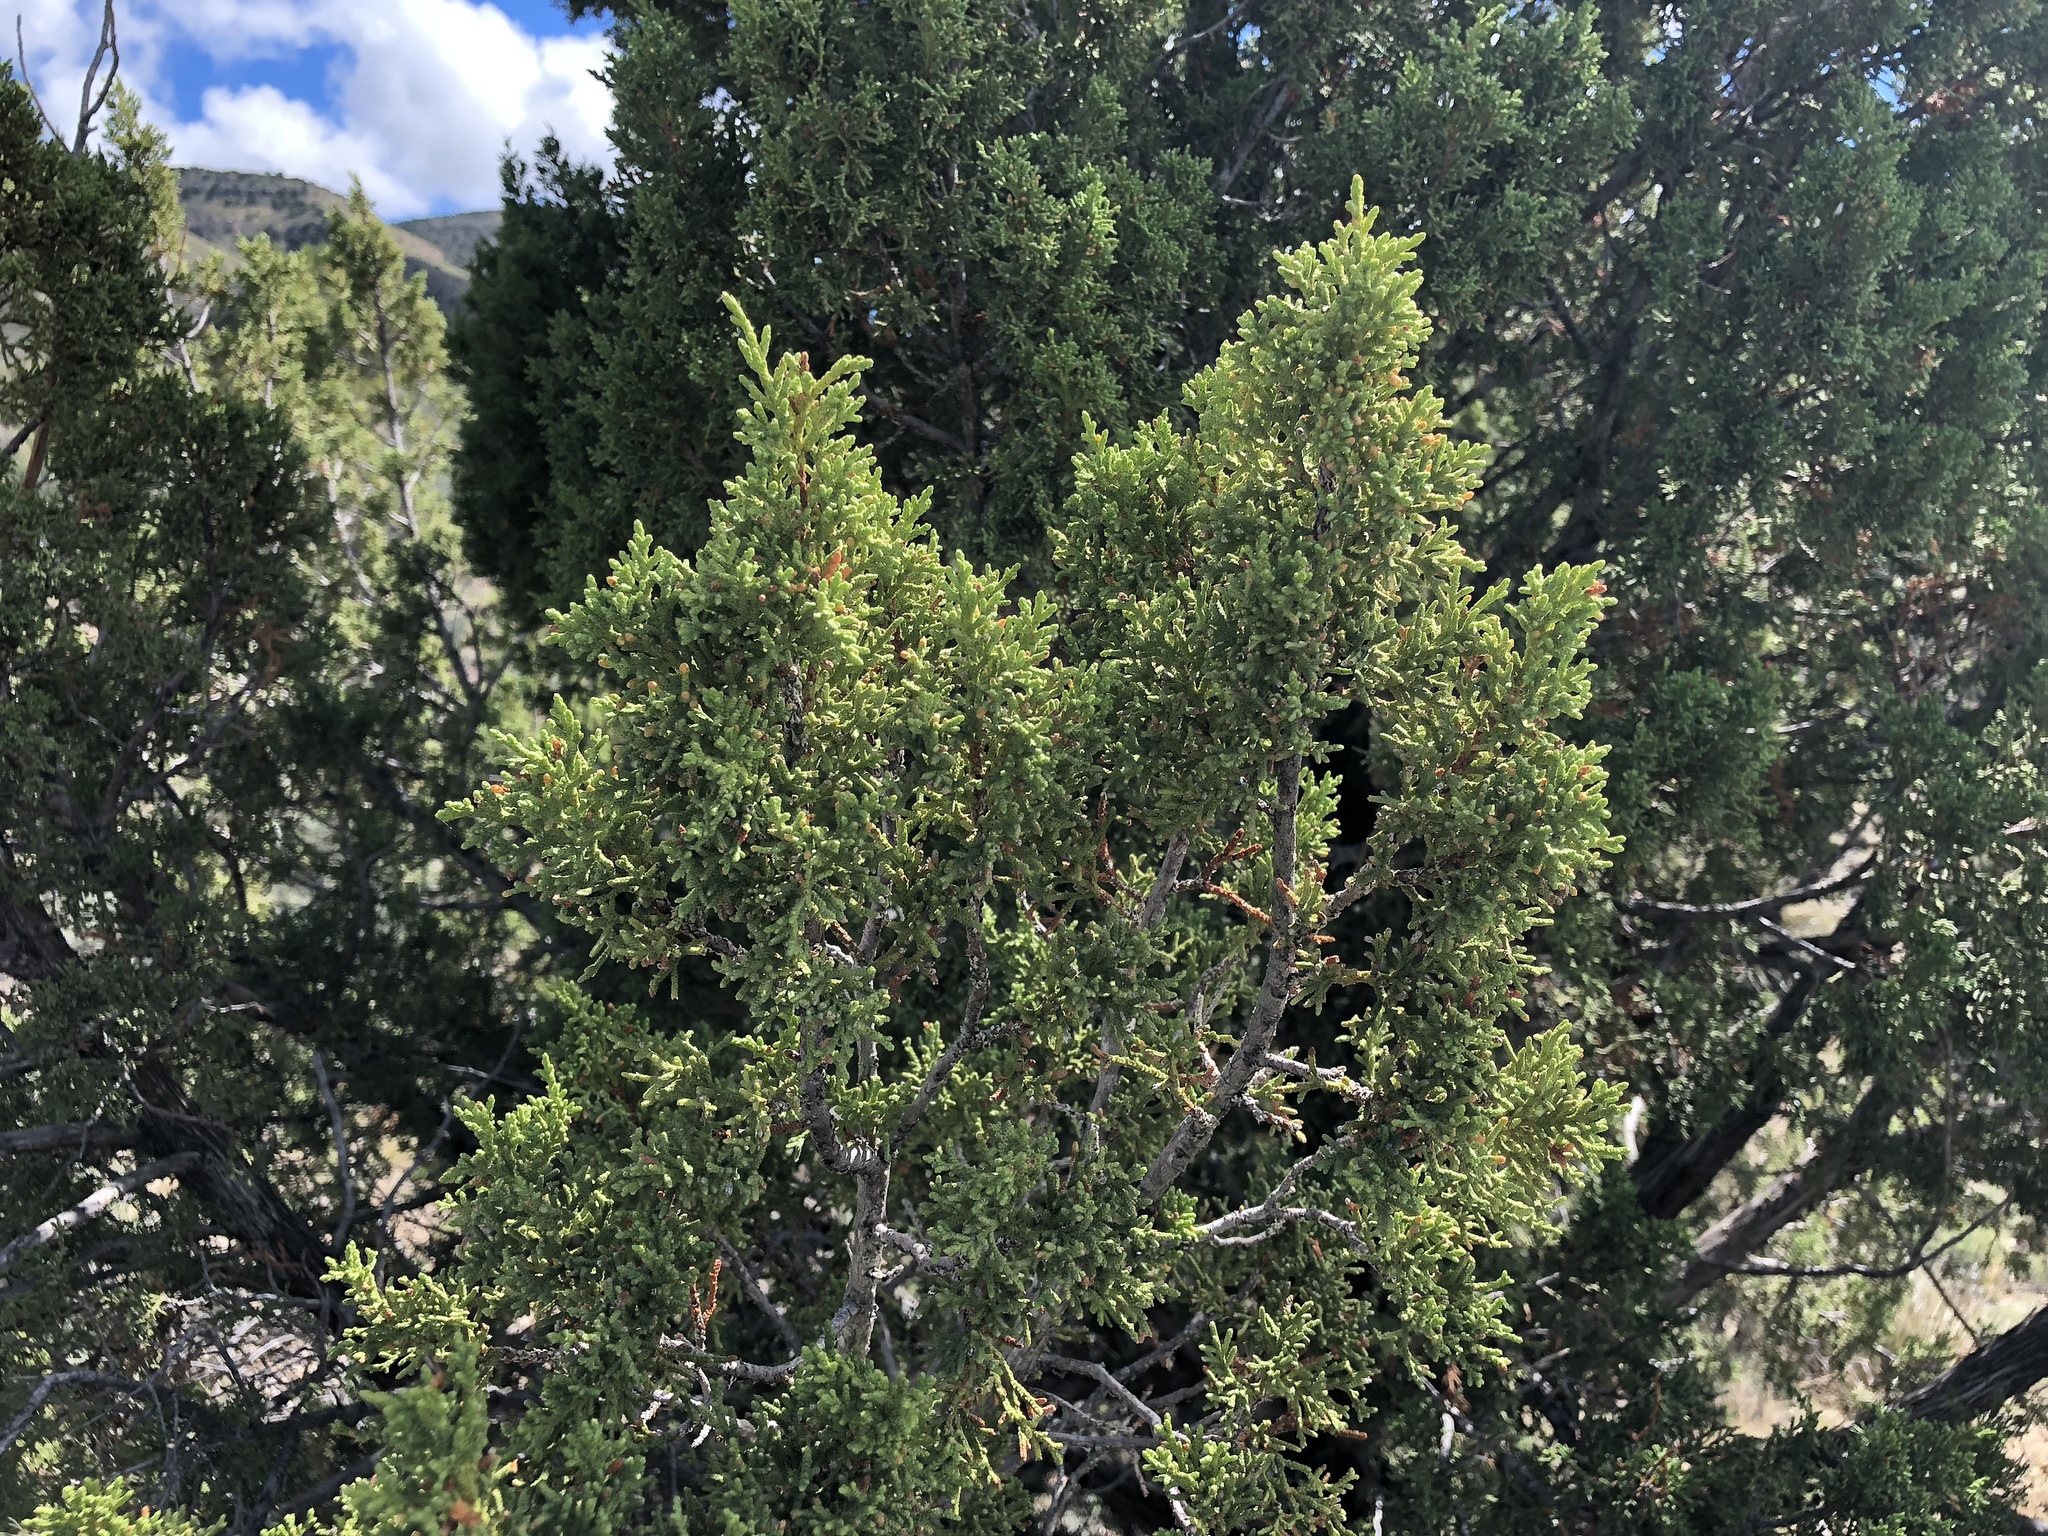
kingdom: Plantae
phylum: Tracheophyta
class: Pinopsida
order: Pinales
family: Cupressaceae
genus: Juniperus
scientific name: Juniperus monosperma
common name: One-seed juniper
